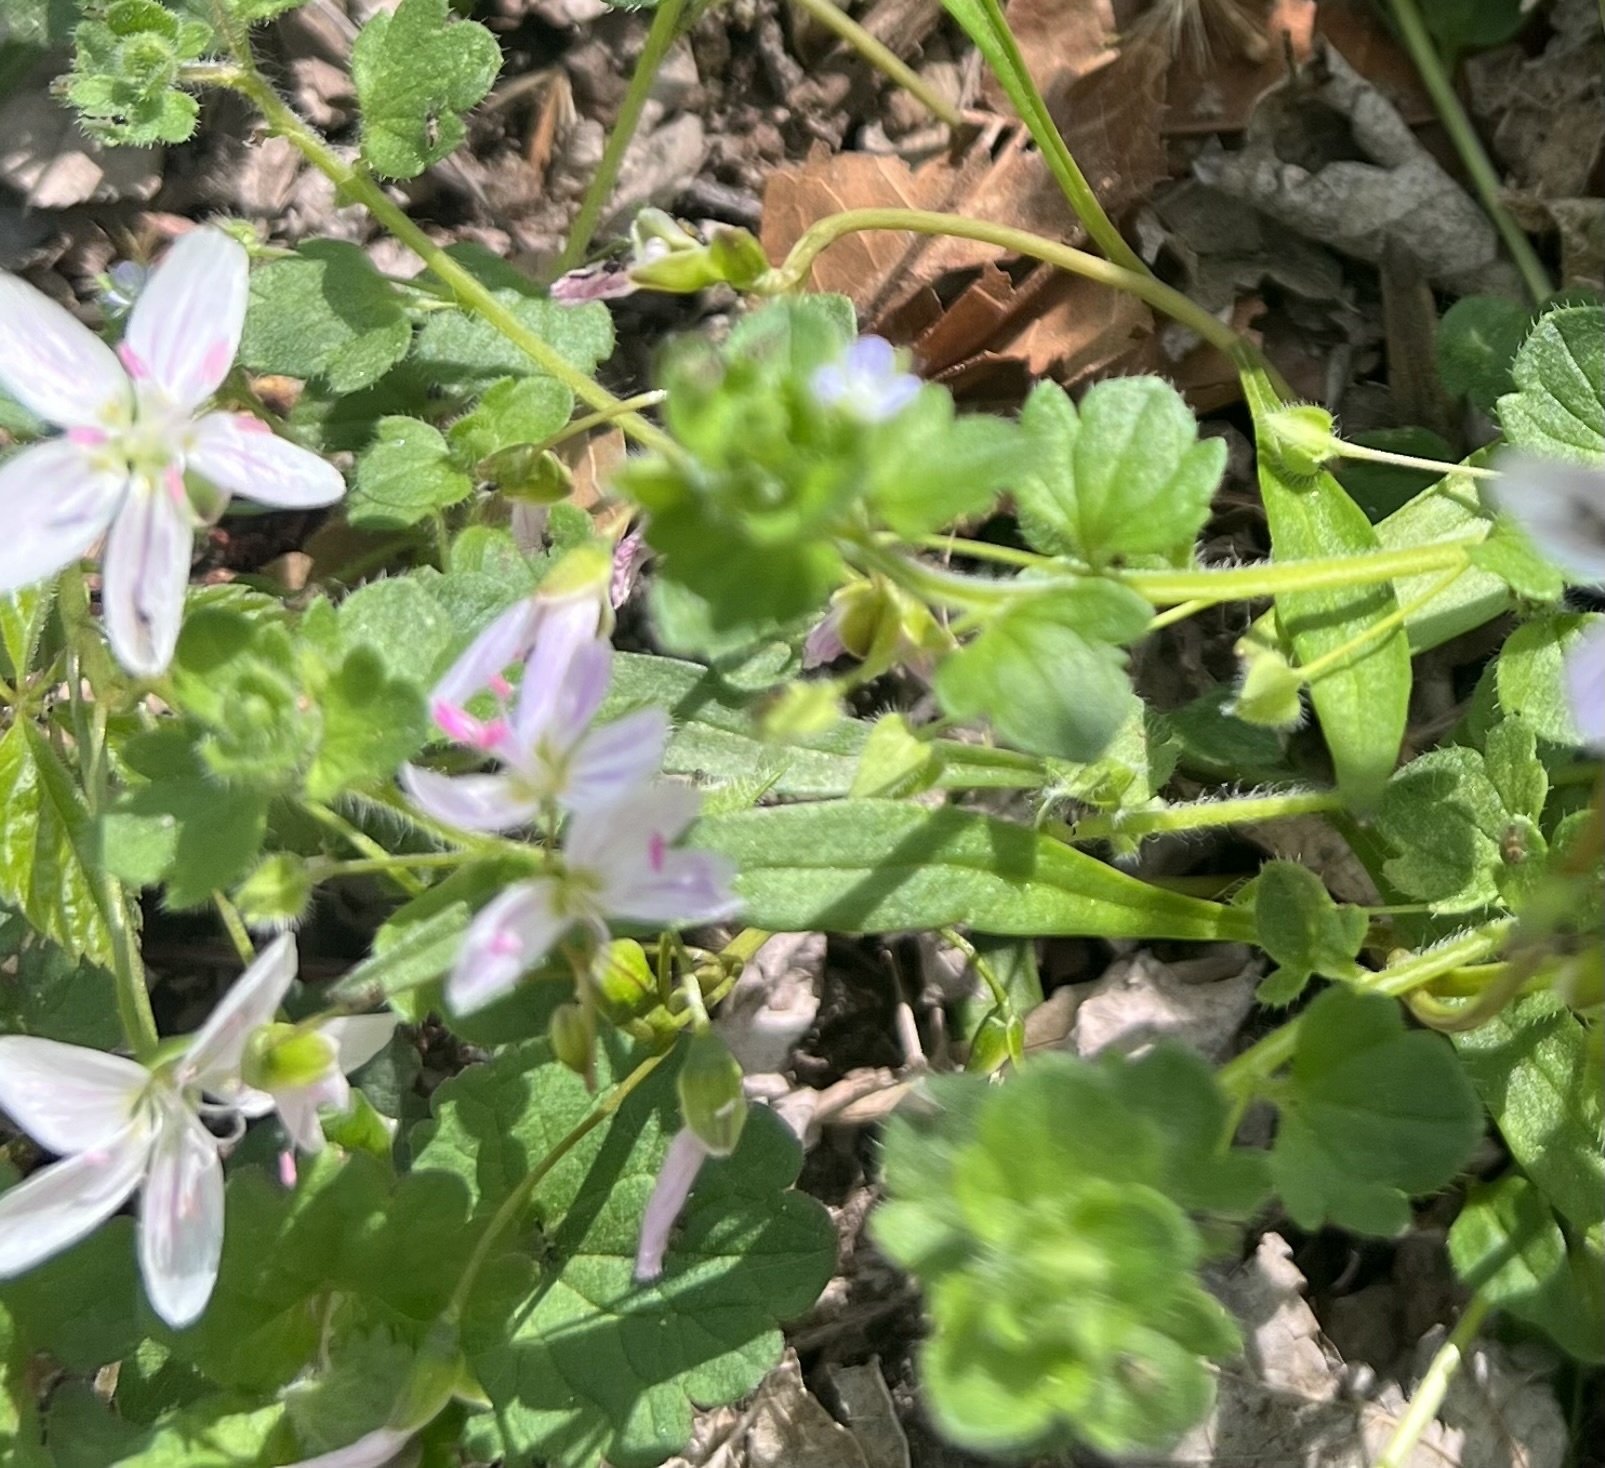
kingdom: Plantae
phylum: Tracheophyta
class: Magnoliopsida
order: Caryophyllales
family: Montiaceae
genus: Claytonia
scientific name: Claytonia virginica
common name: Virginia springbeauty
